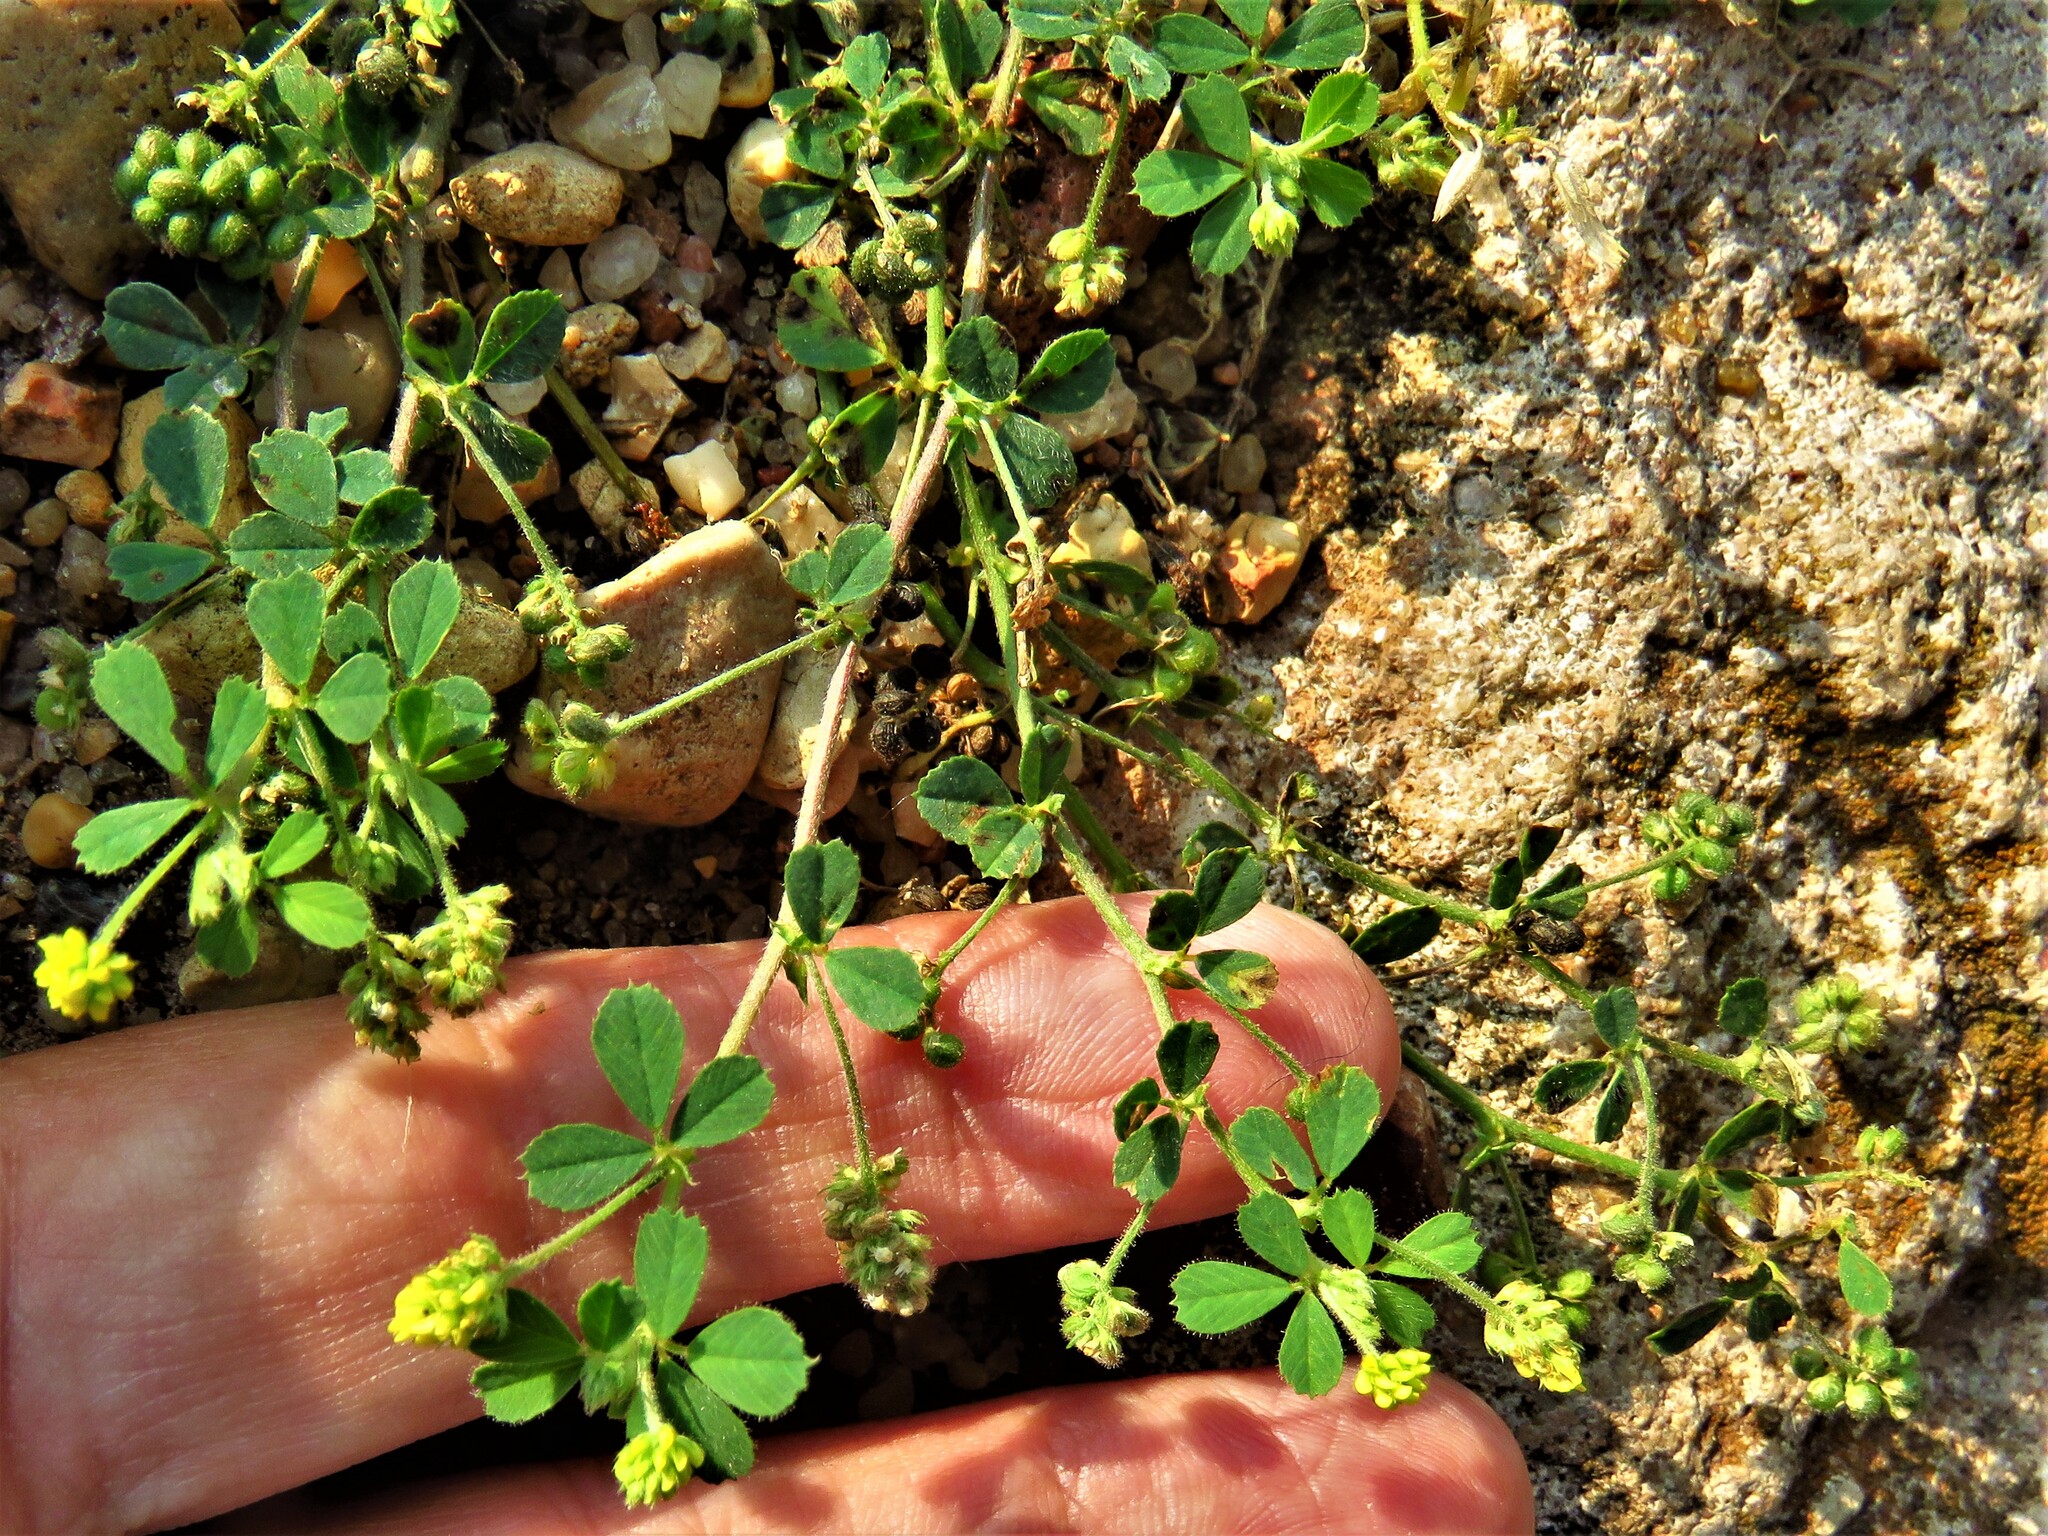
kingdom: Plantae
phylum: Tracheophyta
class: Magnoliopsida
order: Fabales
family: Fabaceae
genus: Medicago
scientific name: Medicago lupulina
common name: Black medick
